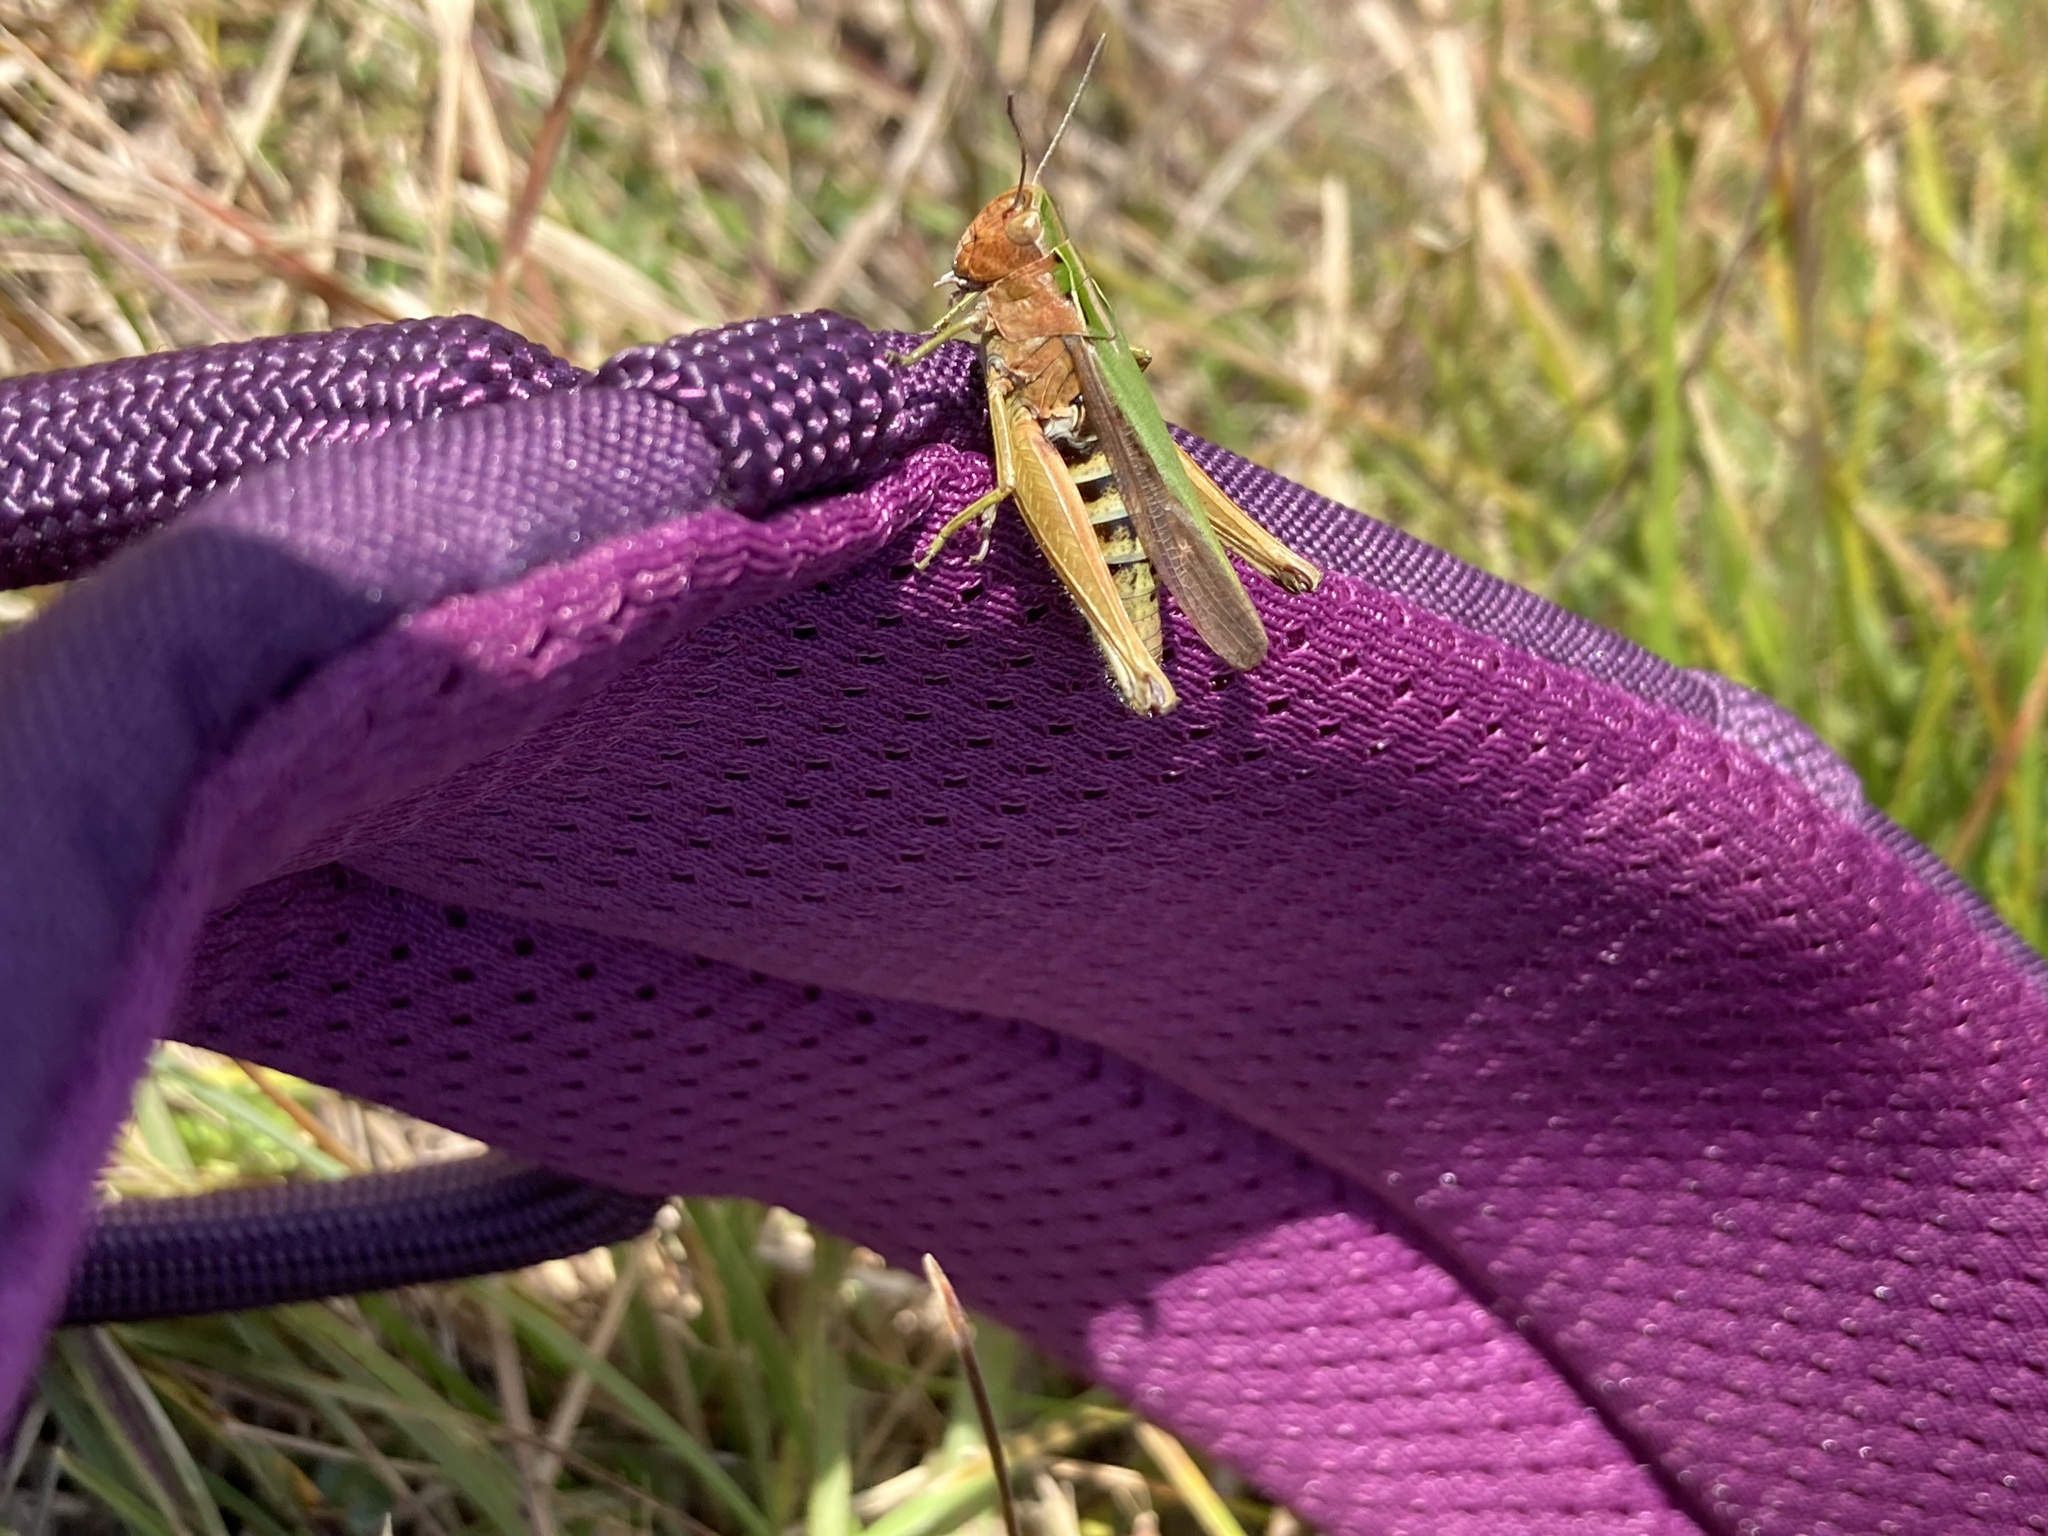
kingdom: Animalia
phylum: Arthropoda
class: Insecta
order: Orthoptera
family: Acrididae
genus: Omocestus
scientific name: Omocestus viridulus
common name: Common green grasshopper
